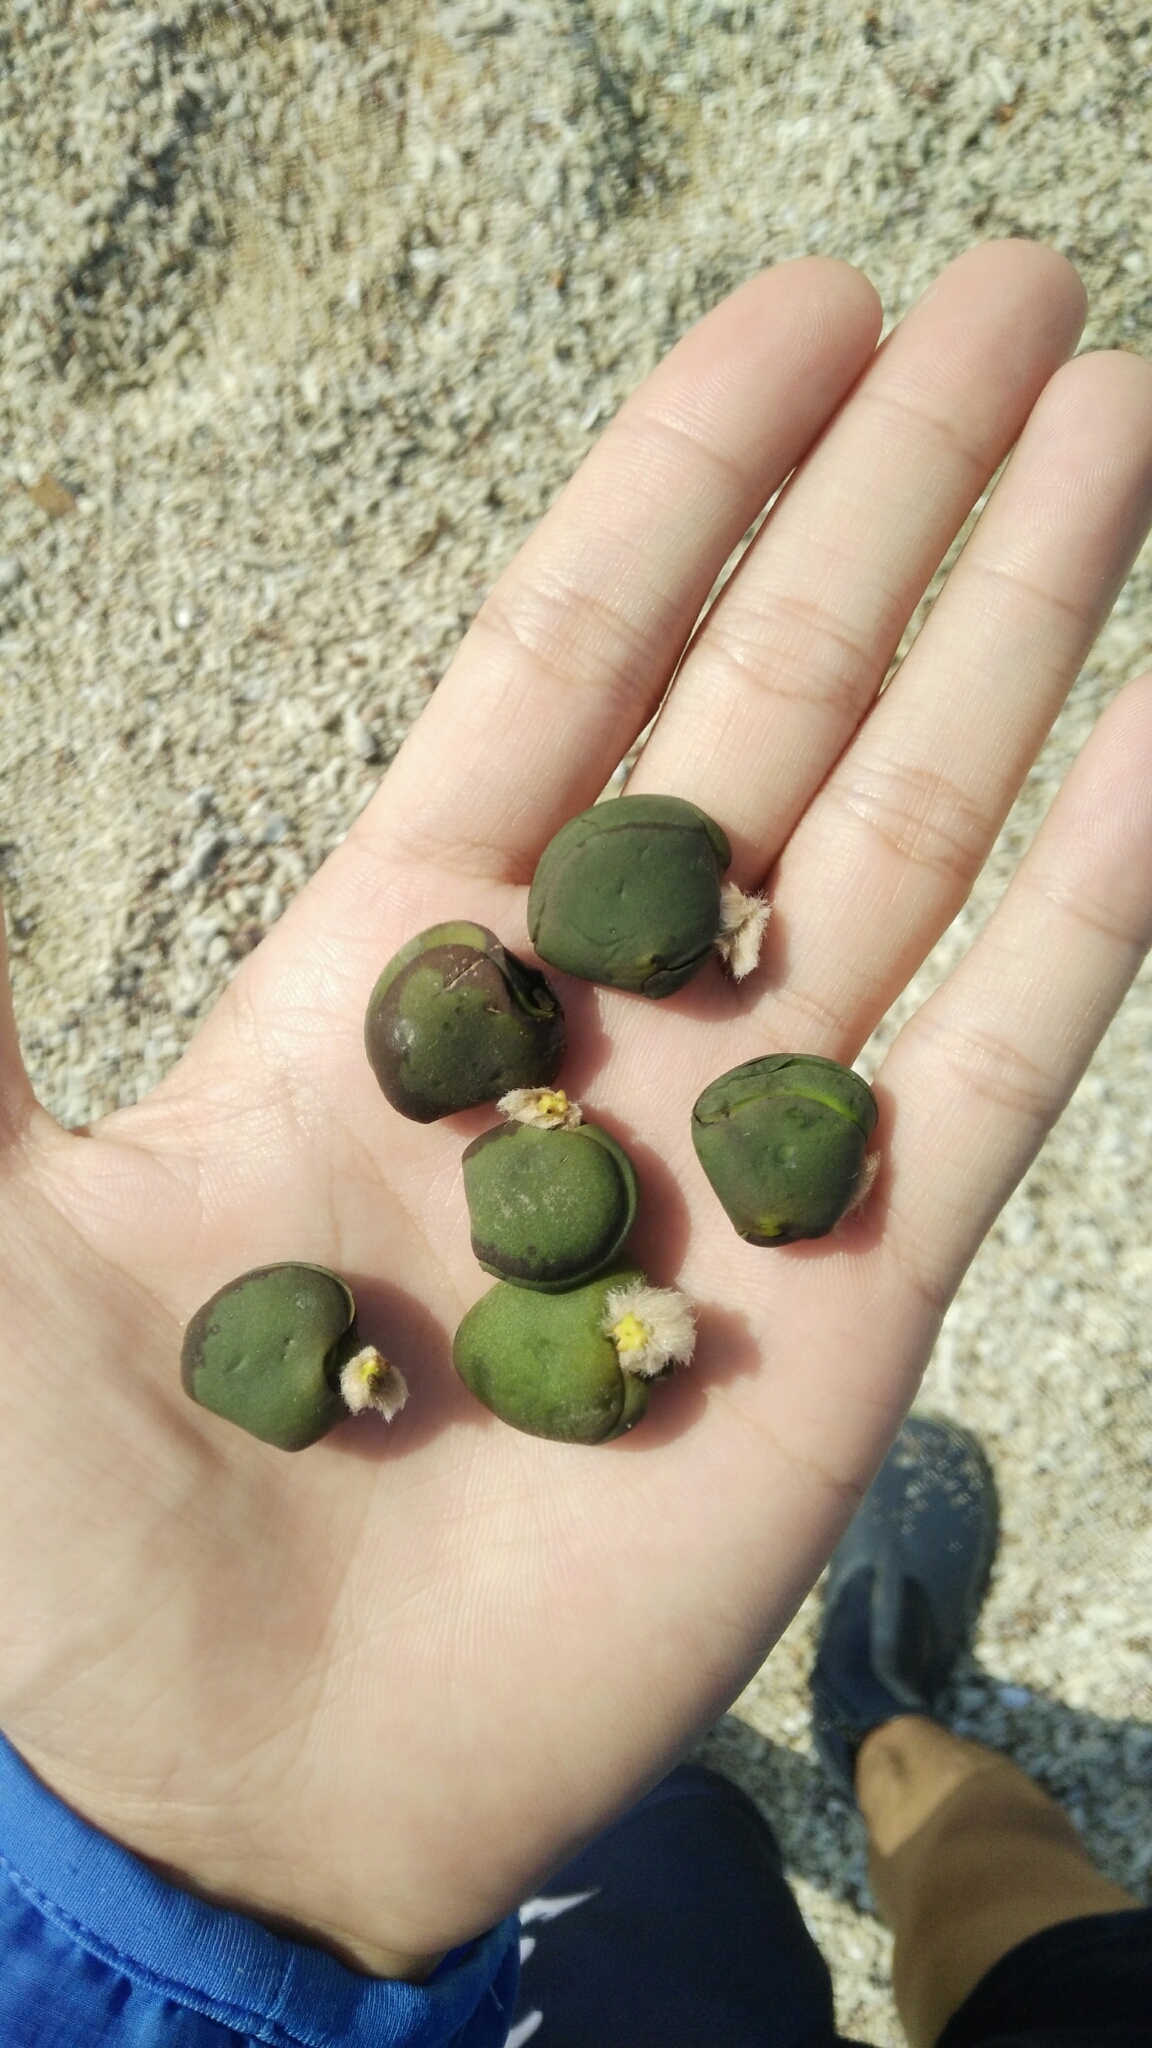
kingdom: Plantae
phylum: Tracheophyta
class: Magnoliopsida
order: Lamiales
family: Acanthaceae
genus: Avicennia
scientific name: Avicennia marina
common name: Gray mangrove
